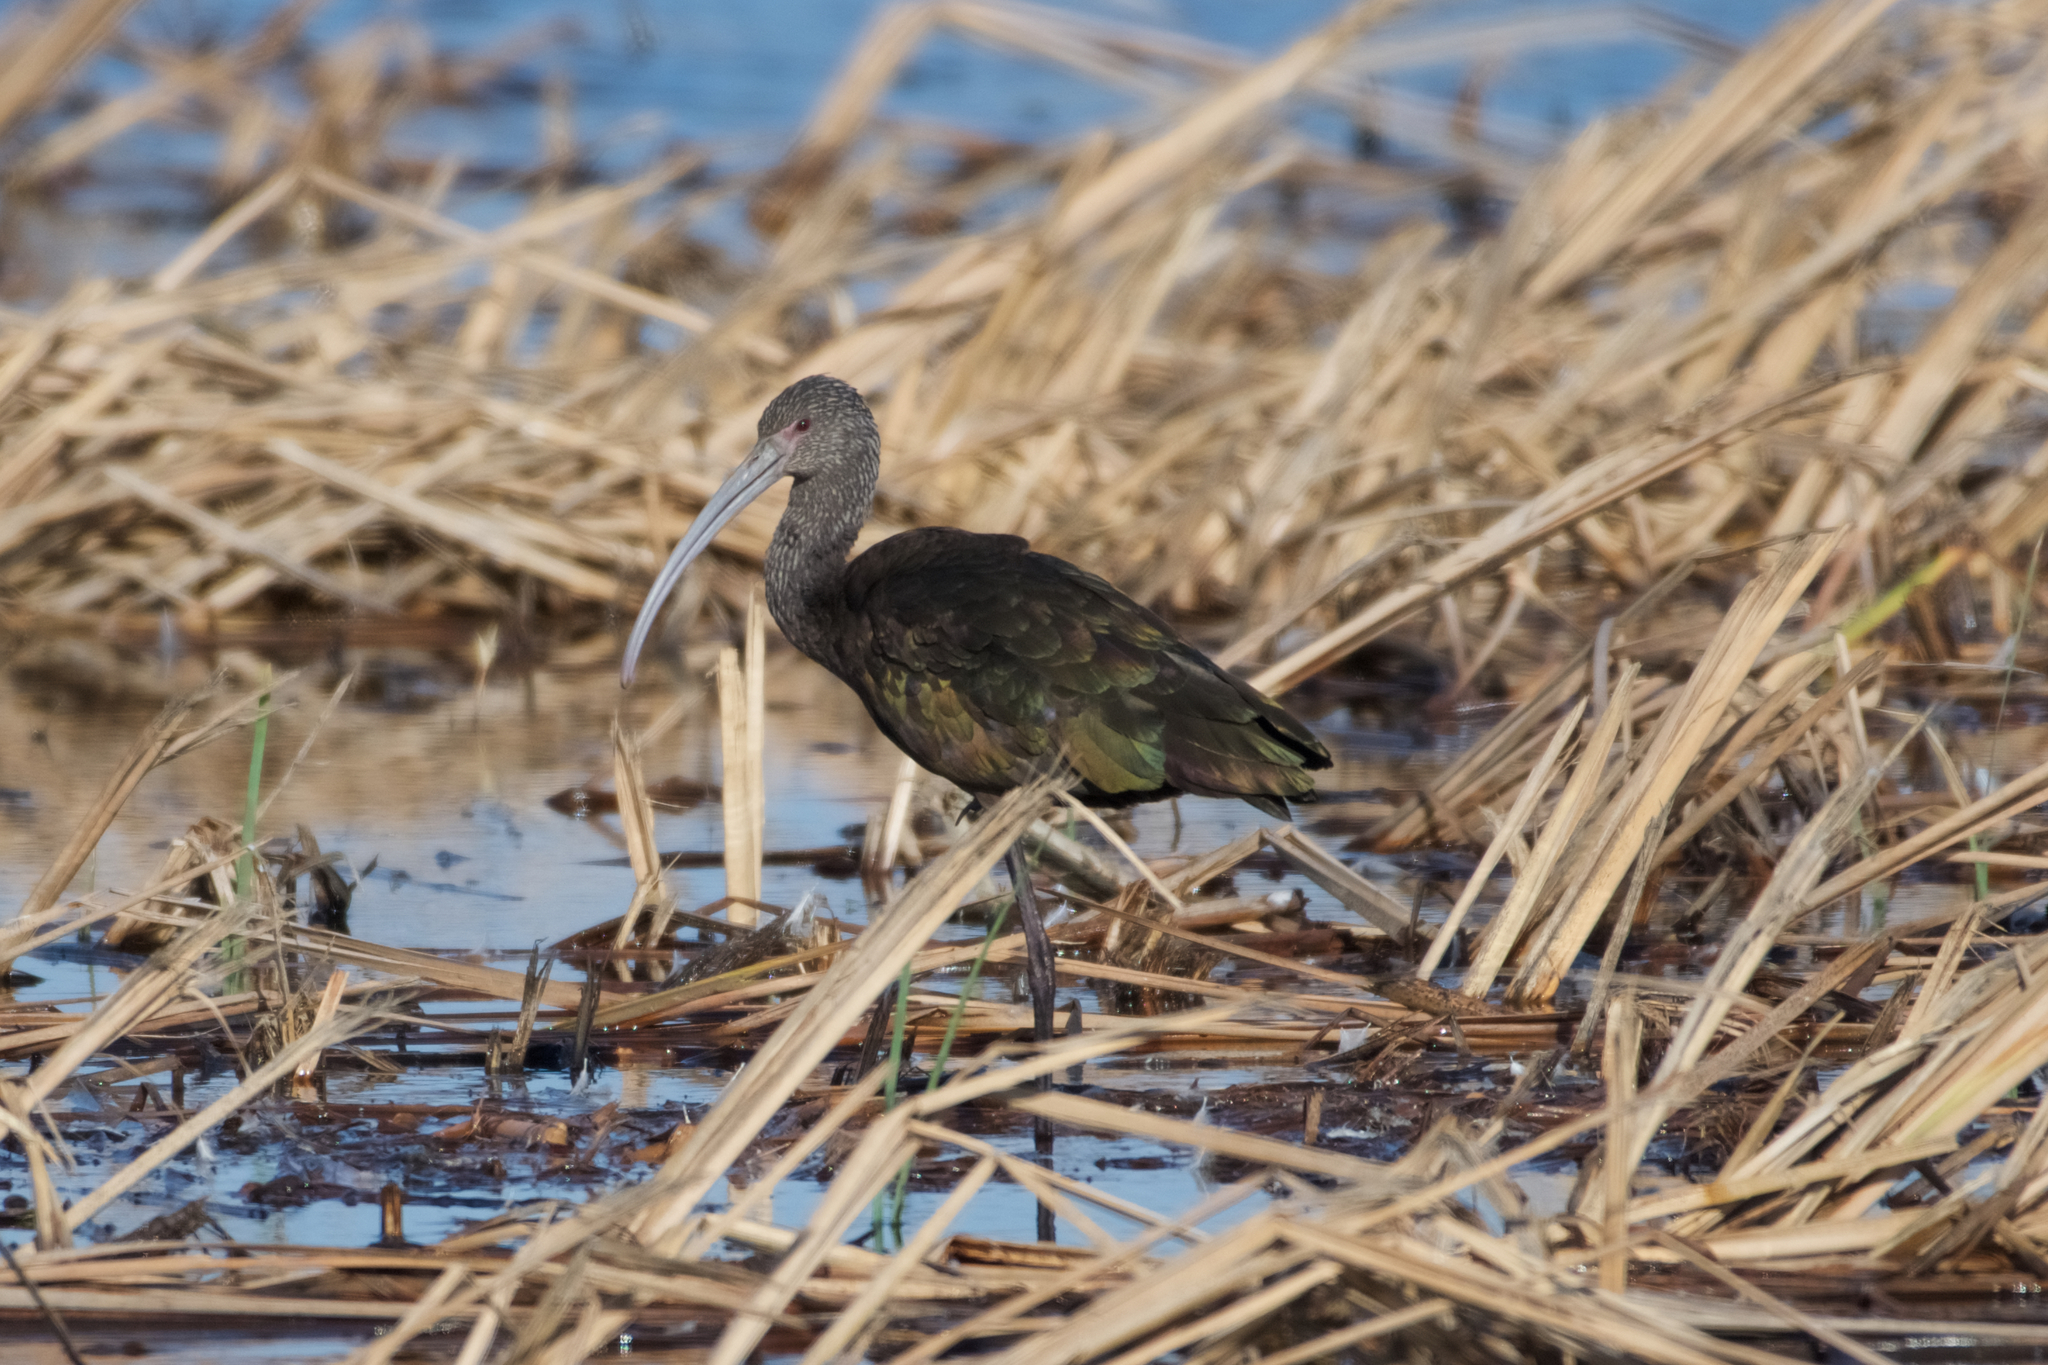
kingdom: Animalia
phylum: Chordata
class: Aves
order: Pelecaniformes
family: Threskiornithidae
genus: Plegadis
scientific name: Plegadis chihi
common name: White-faced ibis
